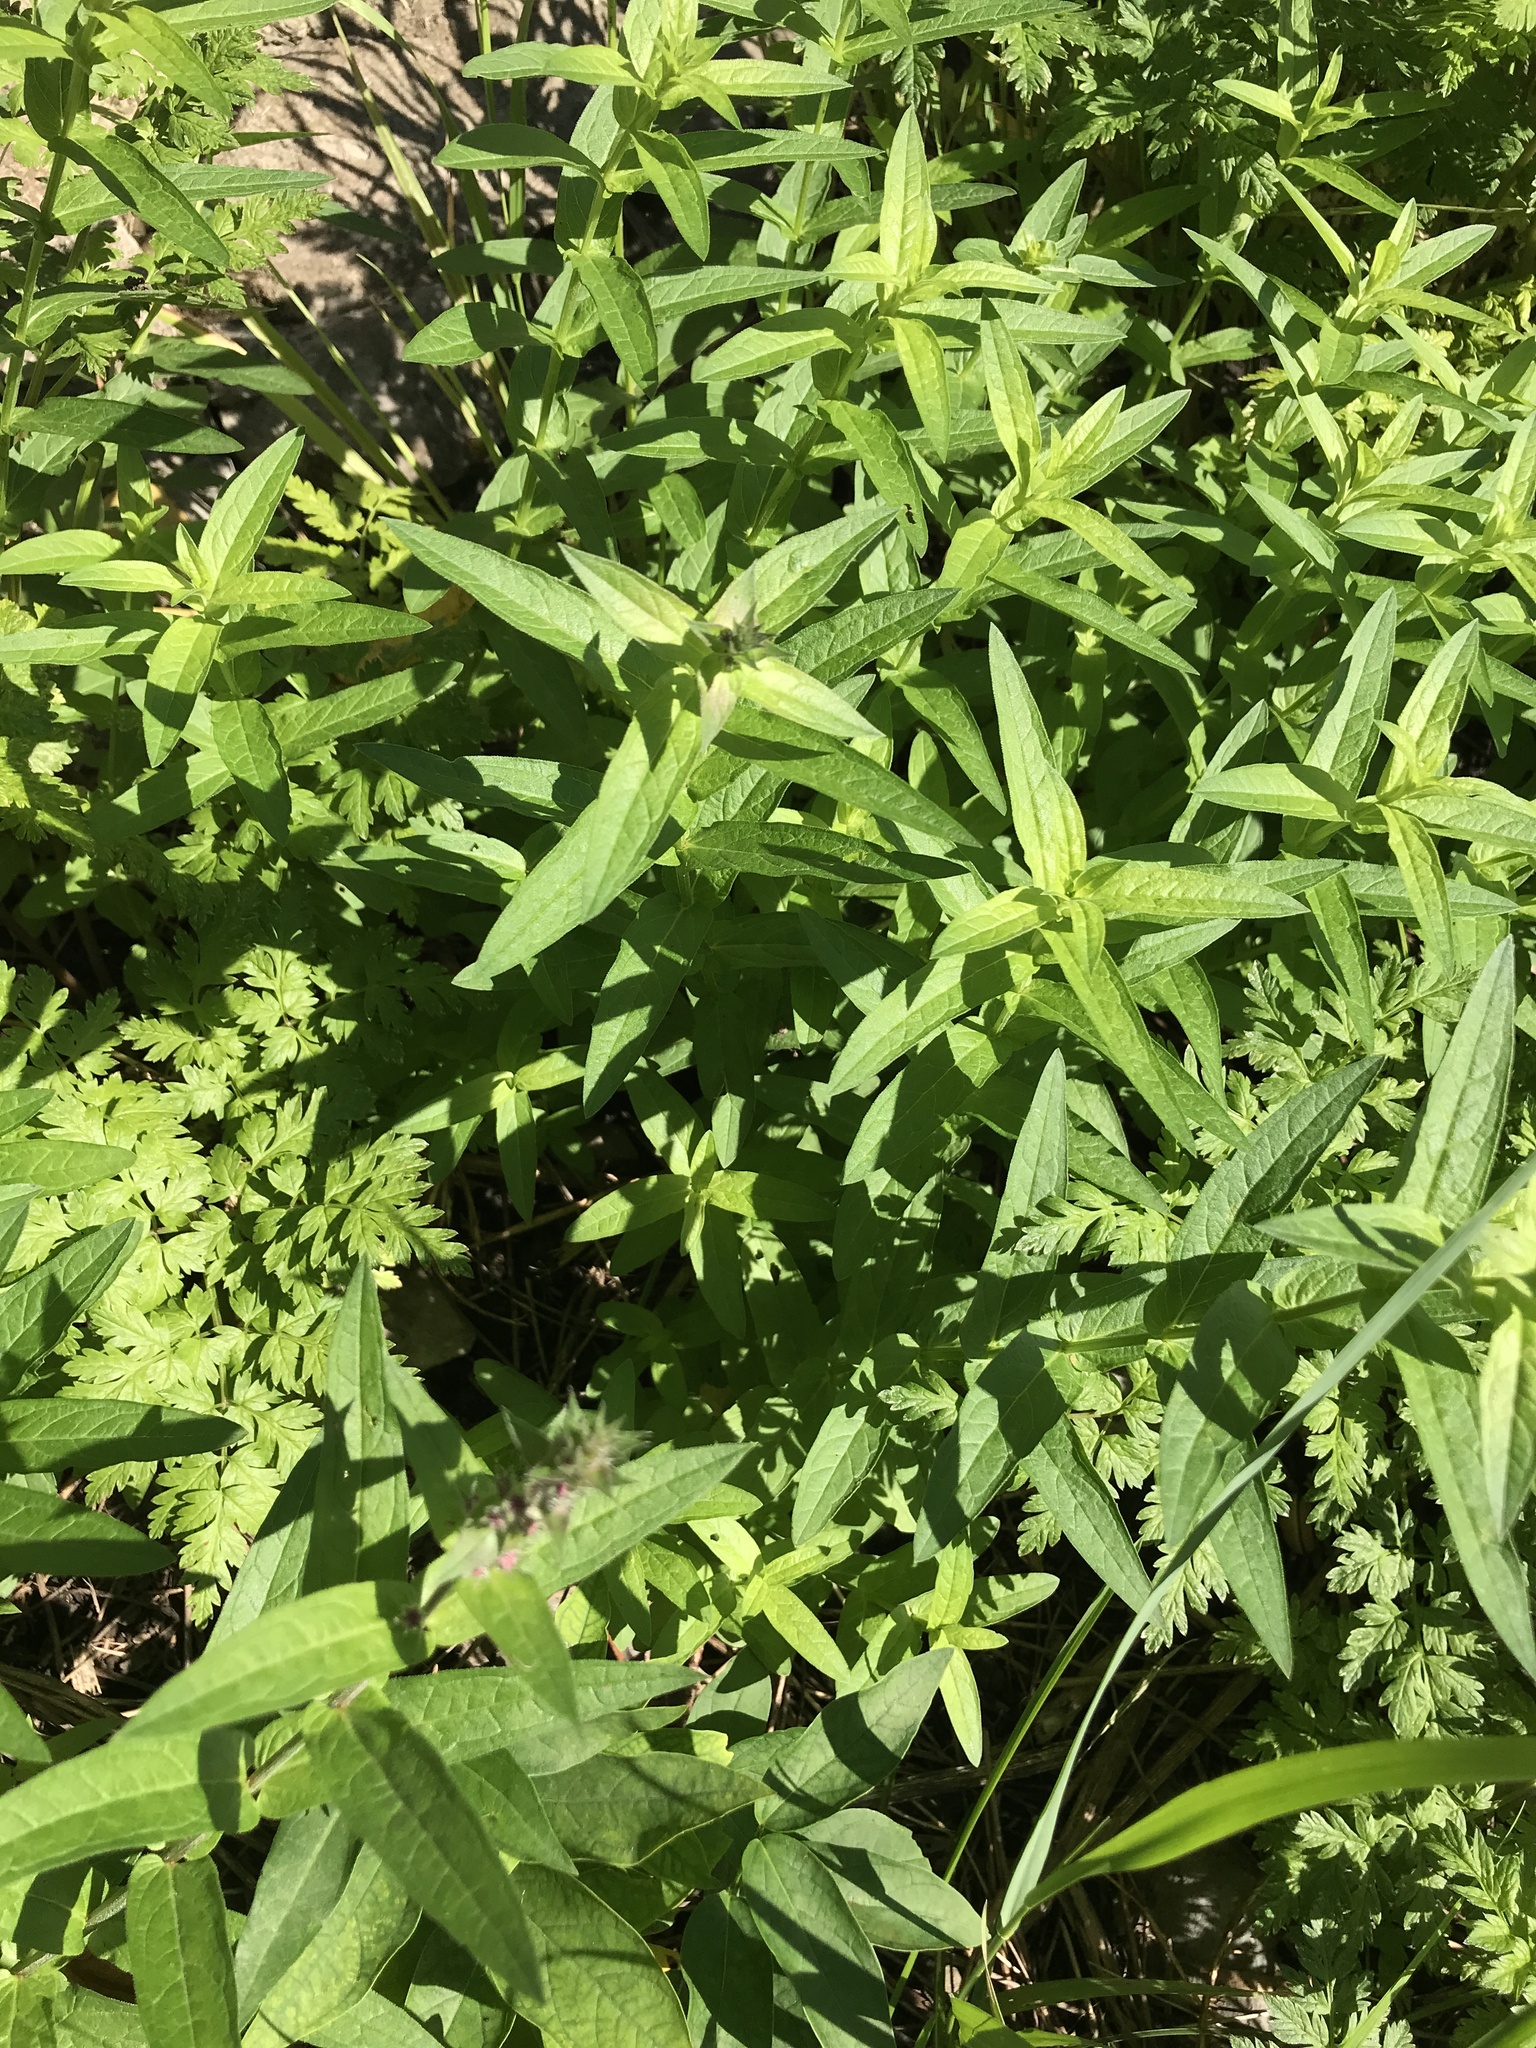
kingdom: Plantae
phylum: Tracheophyta
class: Magnoliopsida
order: Myrtales
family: Lythraceae
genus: Lythrum
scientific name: Lythrum salicaria
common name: Purple loosestrife
